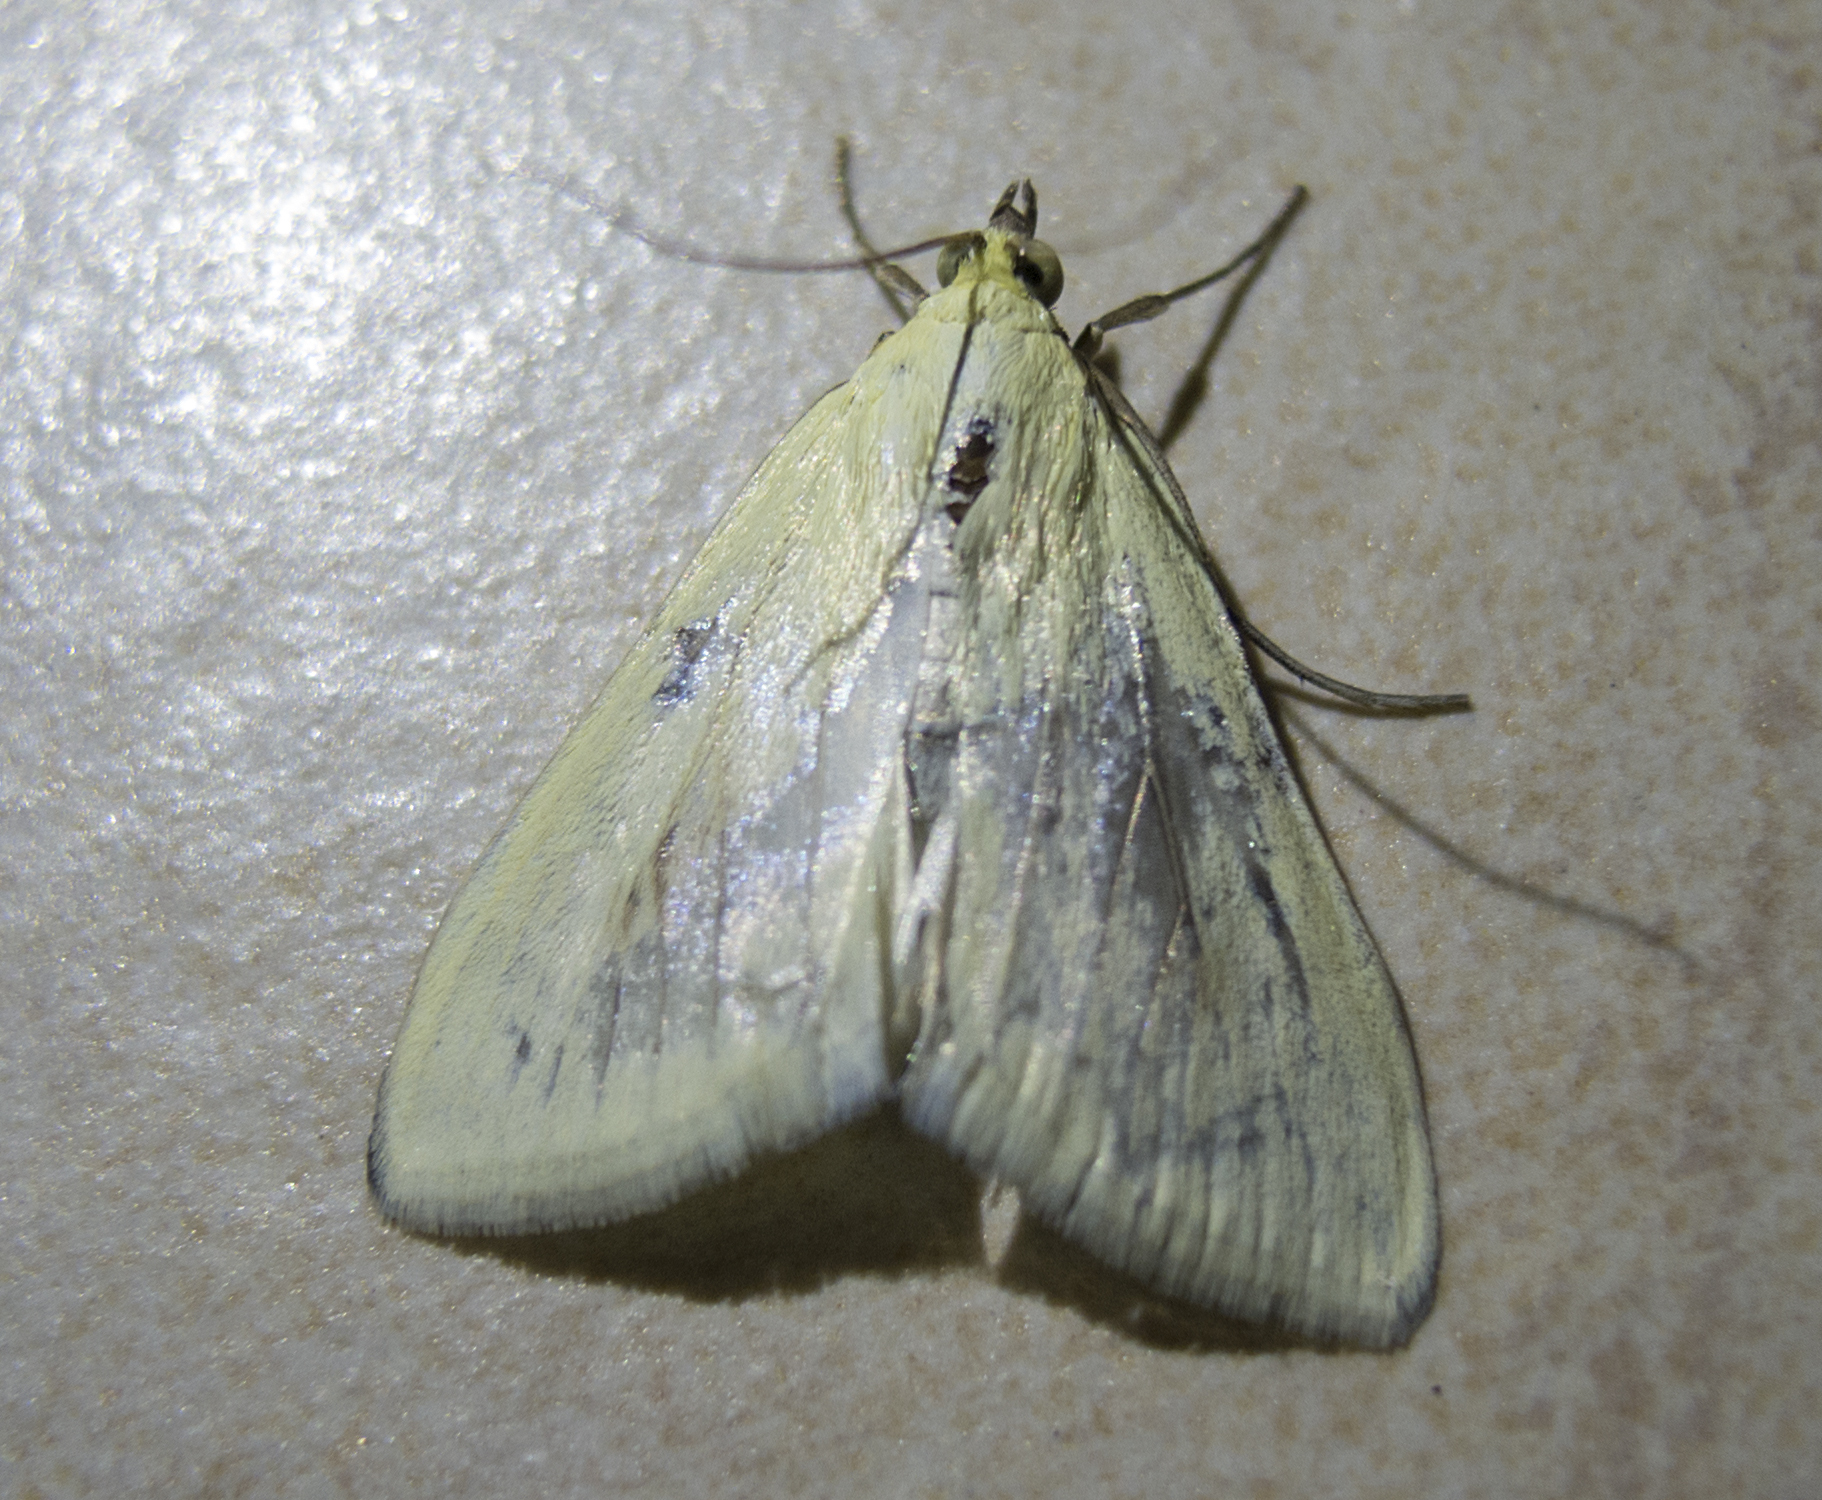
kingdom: Animalia
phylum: Arthropoda
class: Insecta
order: Lepidoptera
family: Crambidae
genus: Sitochroa
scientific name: Sitochroa palealis
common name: Greenish-yellow sitochroa moth
